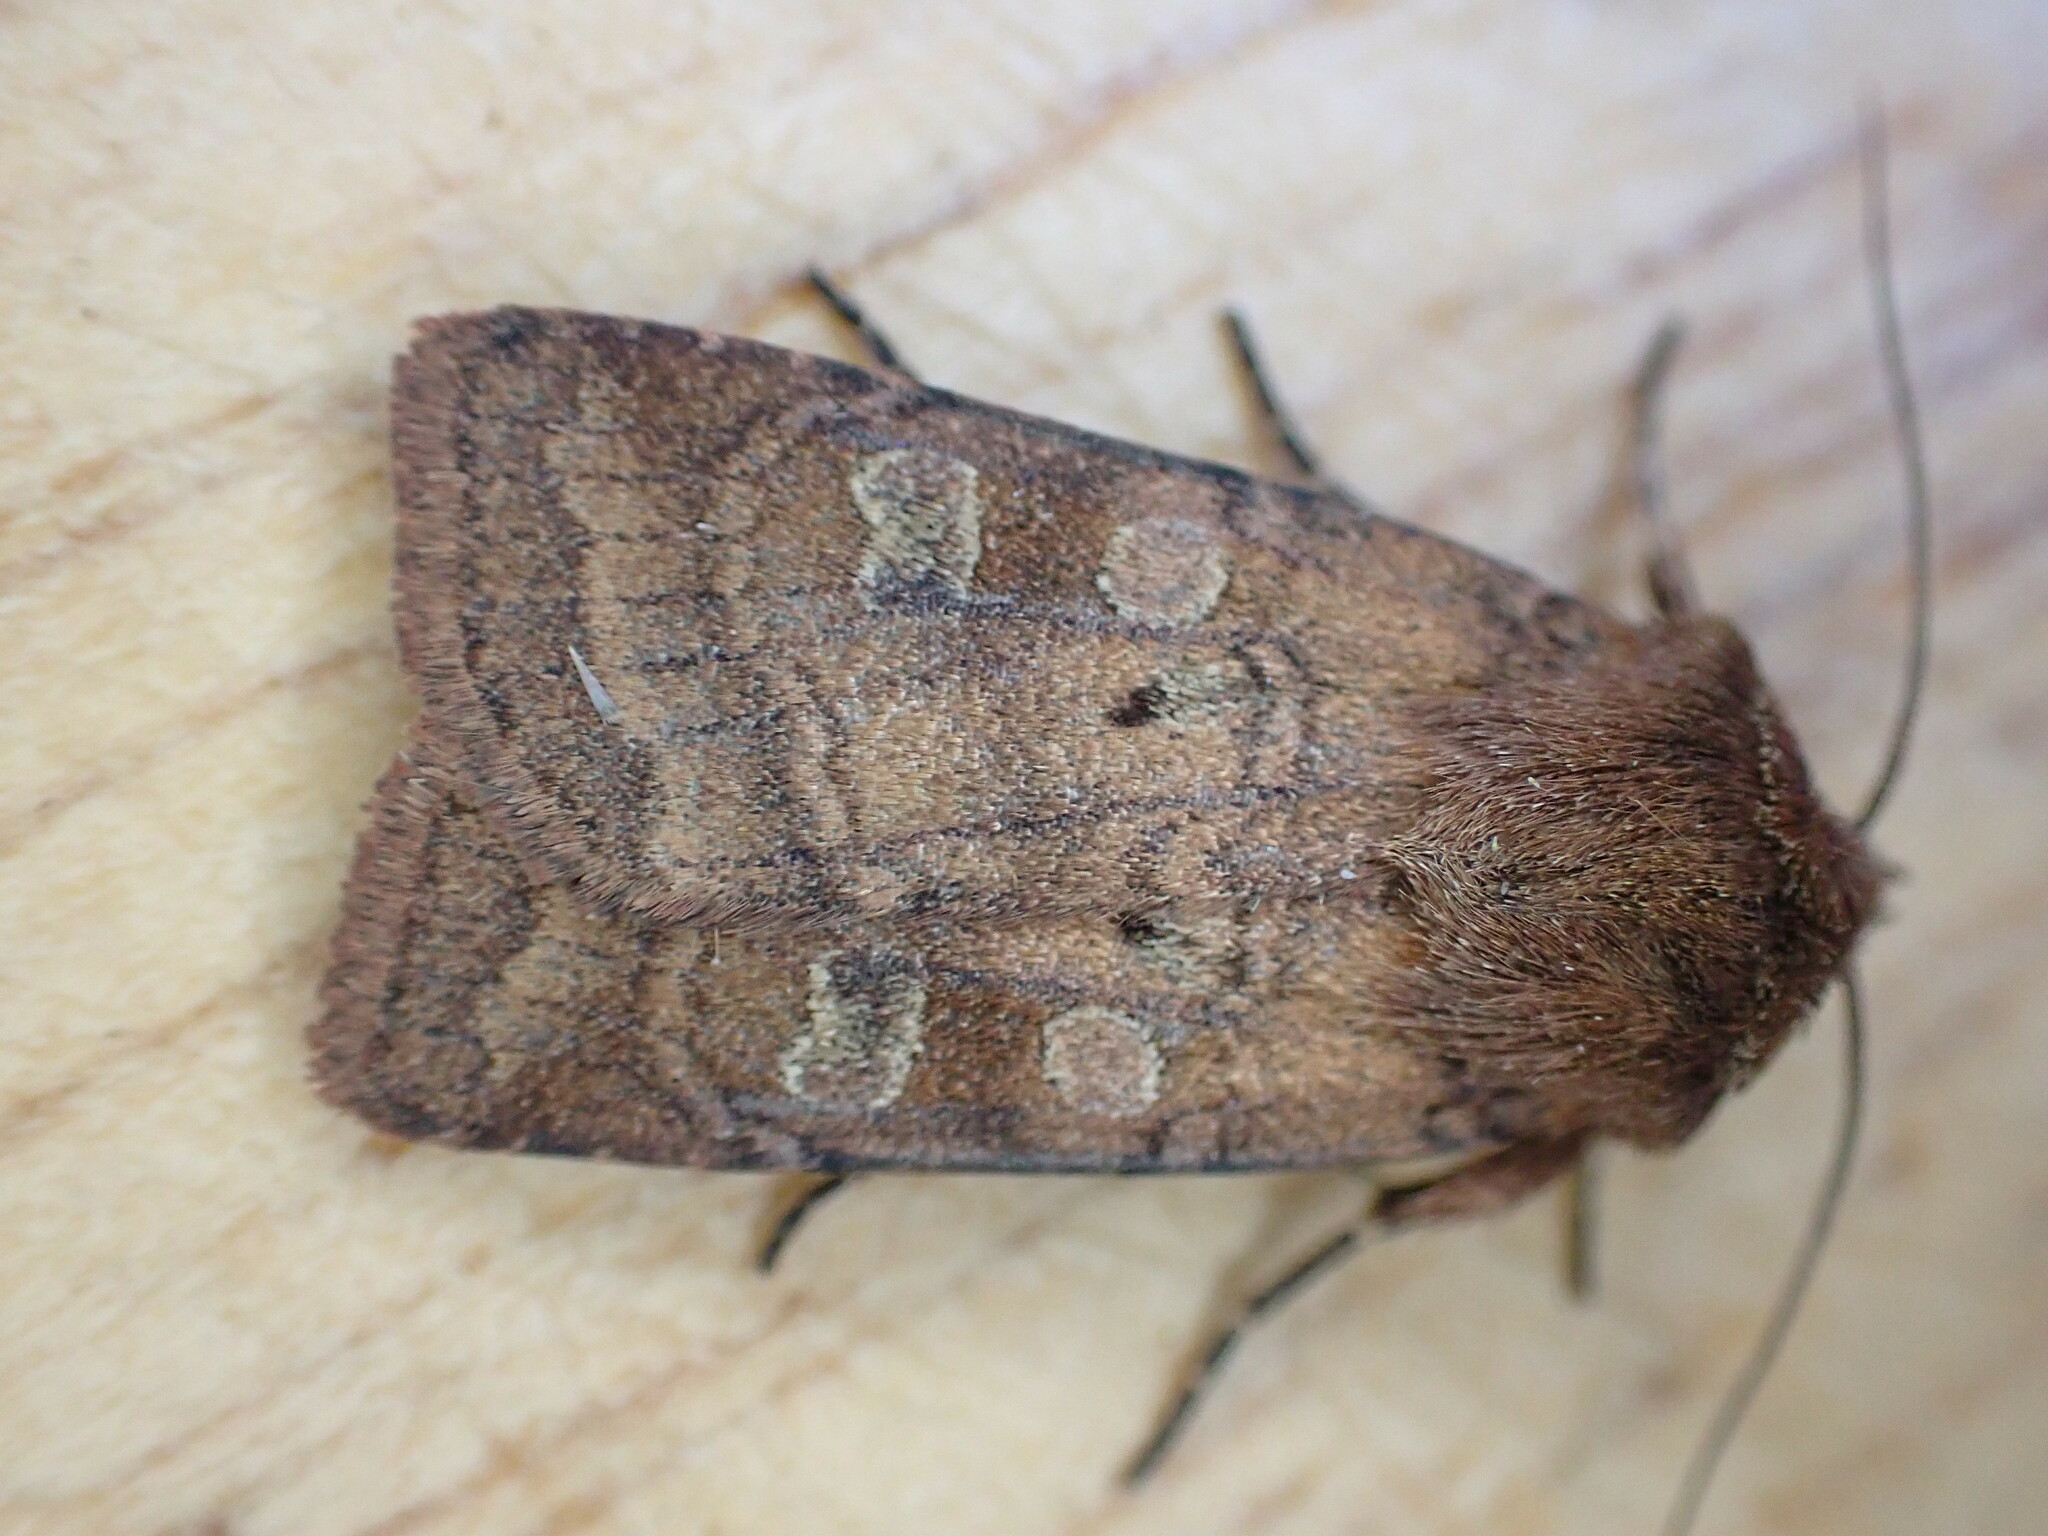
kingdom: Animalia
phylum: Arthropoda
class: Insecta
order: Lepidoptera
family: Noctuidae
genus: Diarsia
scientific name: Diarsia rubi
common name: Small square-spot
